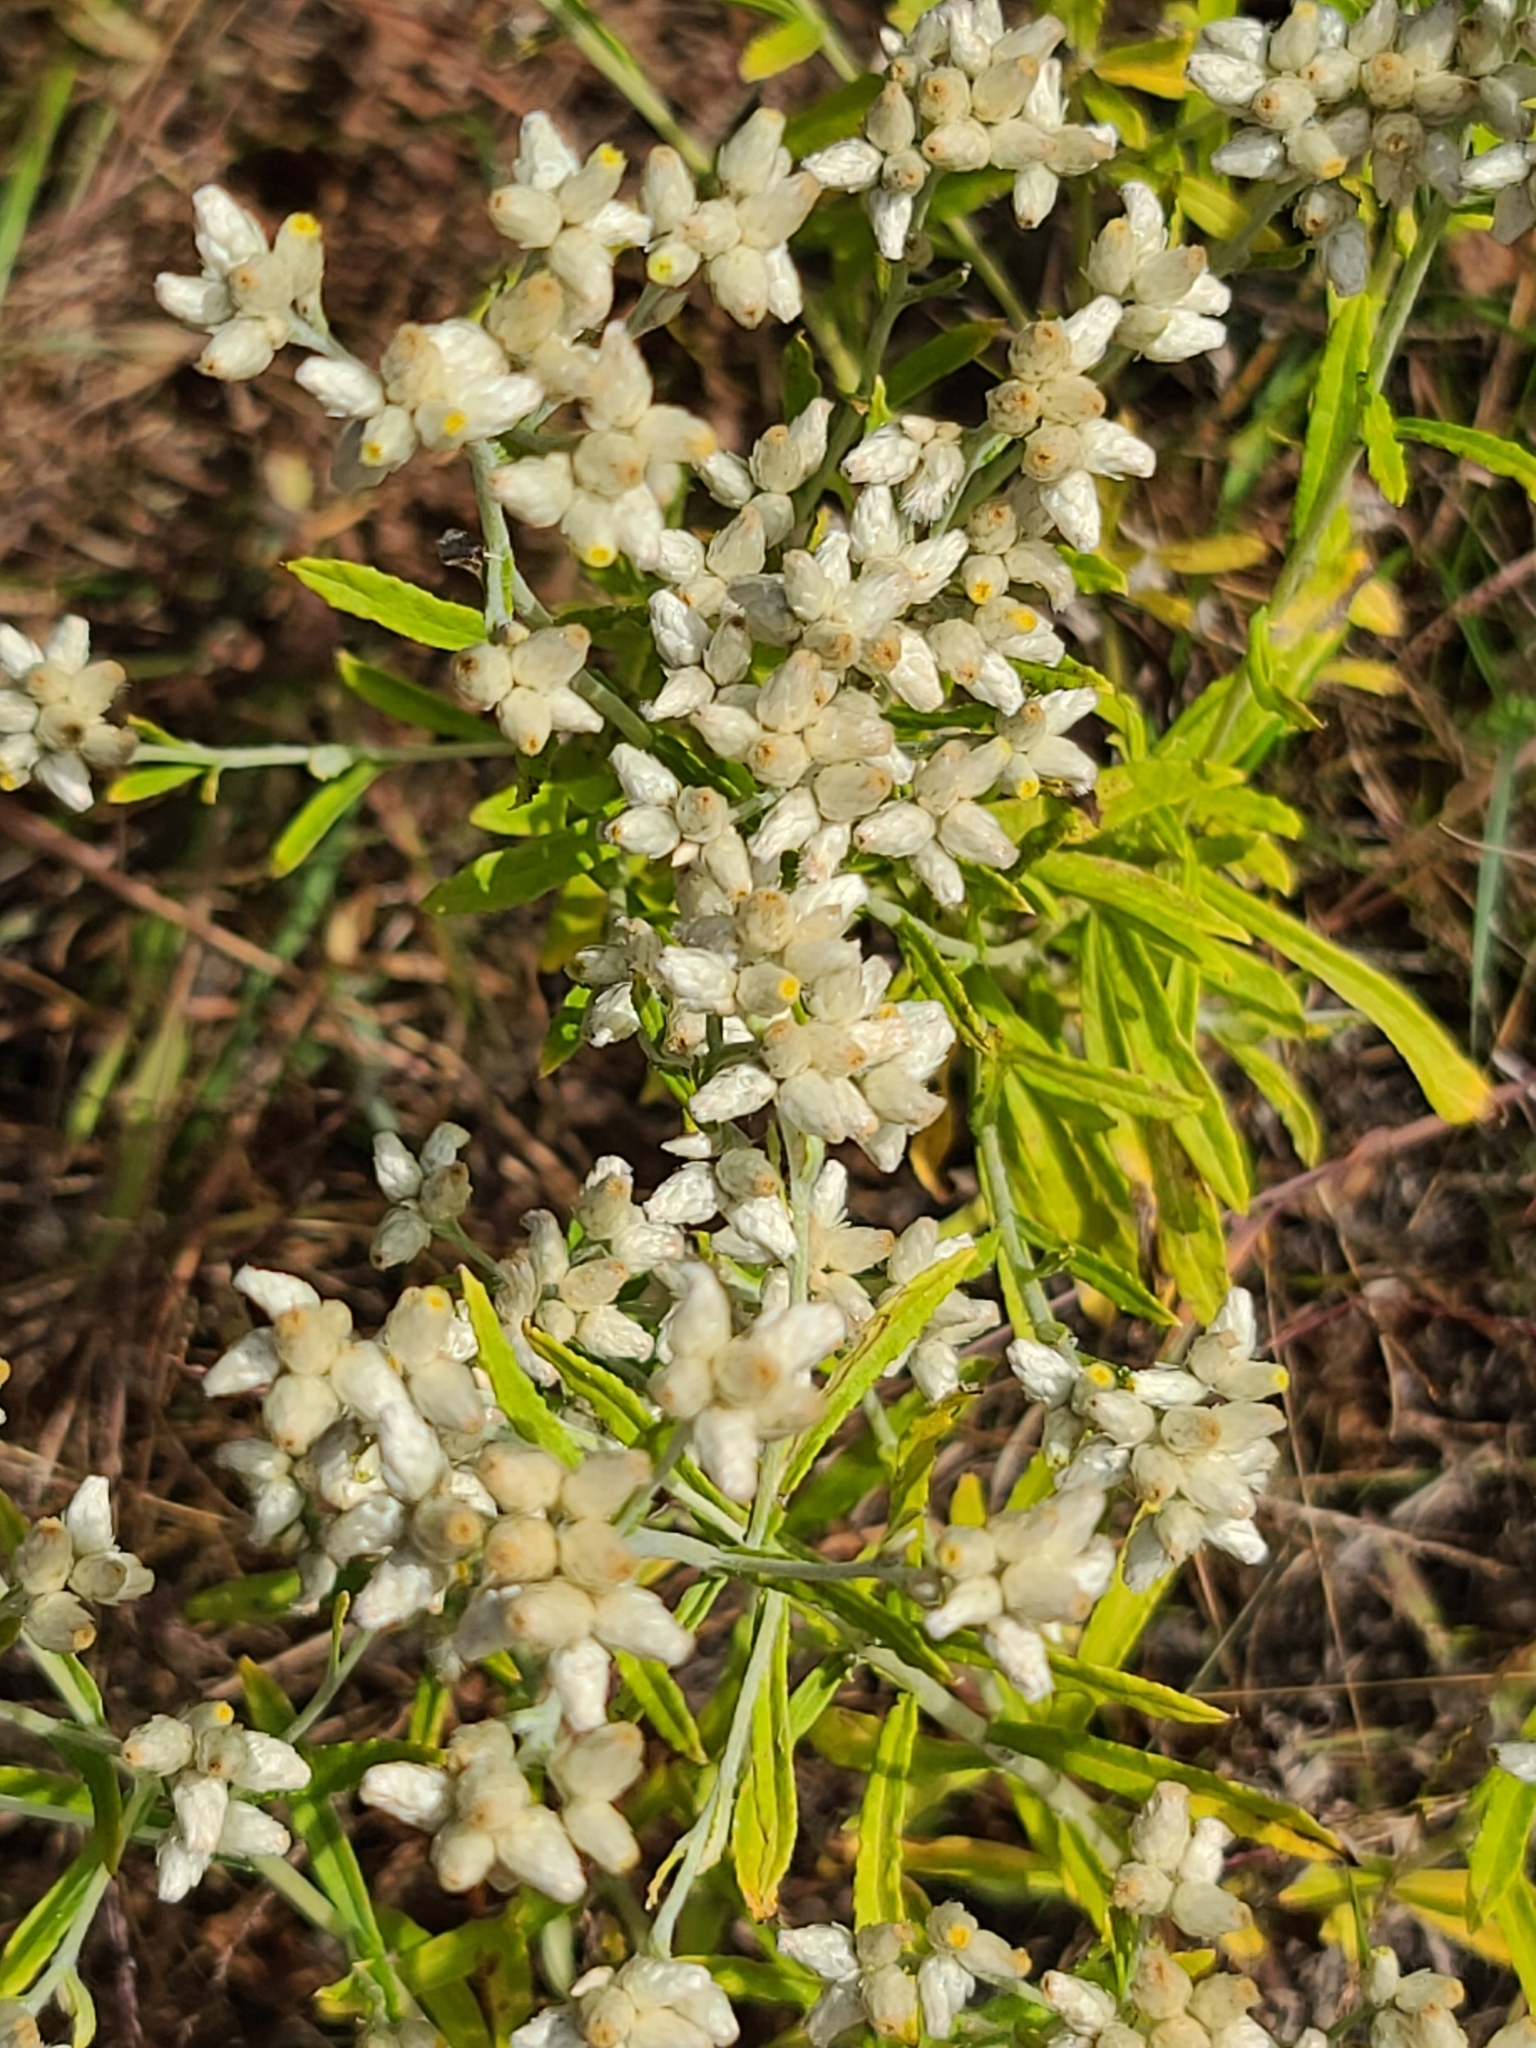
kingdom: Plantae
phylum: Tracheophyta
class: Magnoliopsida
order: Asterales
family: Asteraceae
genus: Pseudognaphalium
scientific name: Pseudognaphalium obtusifolium
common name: Eastern rabbit-tobacco
